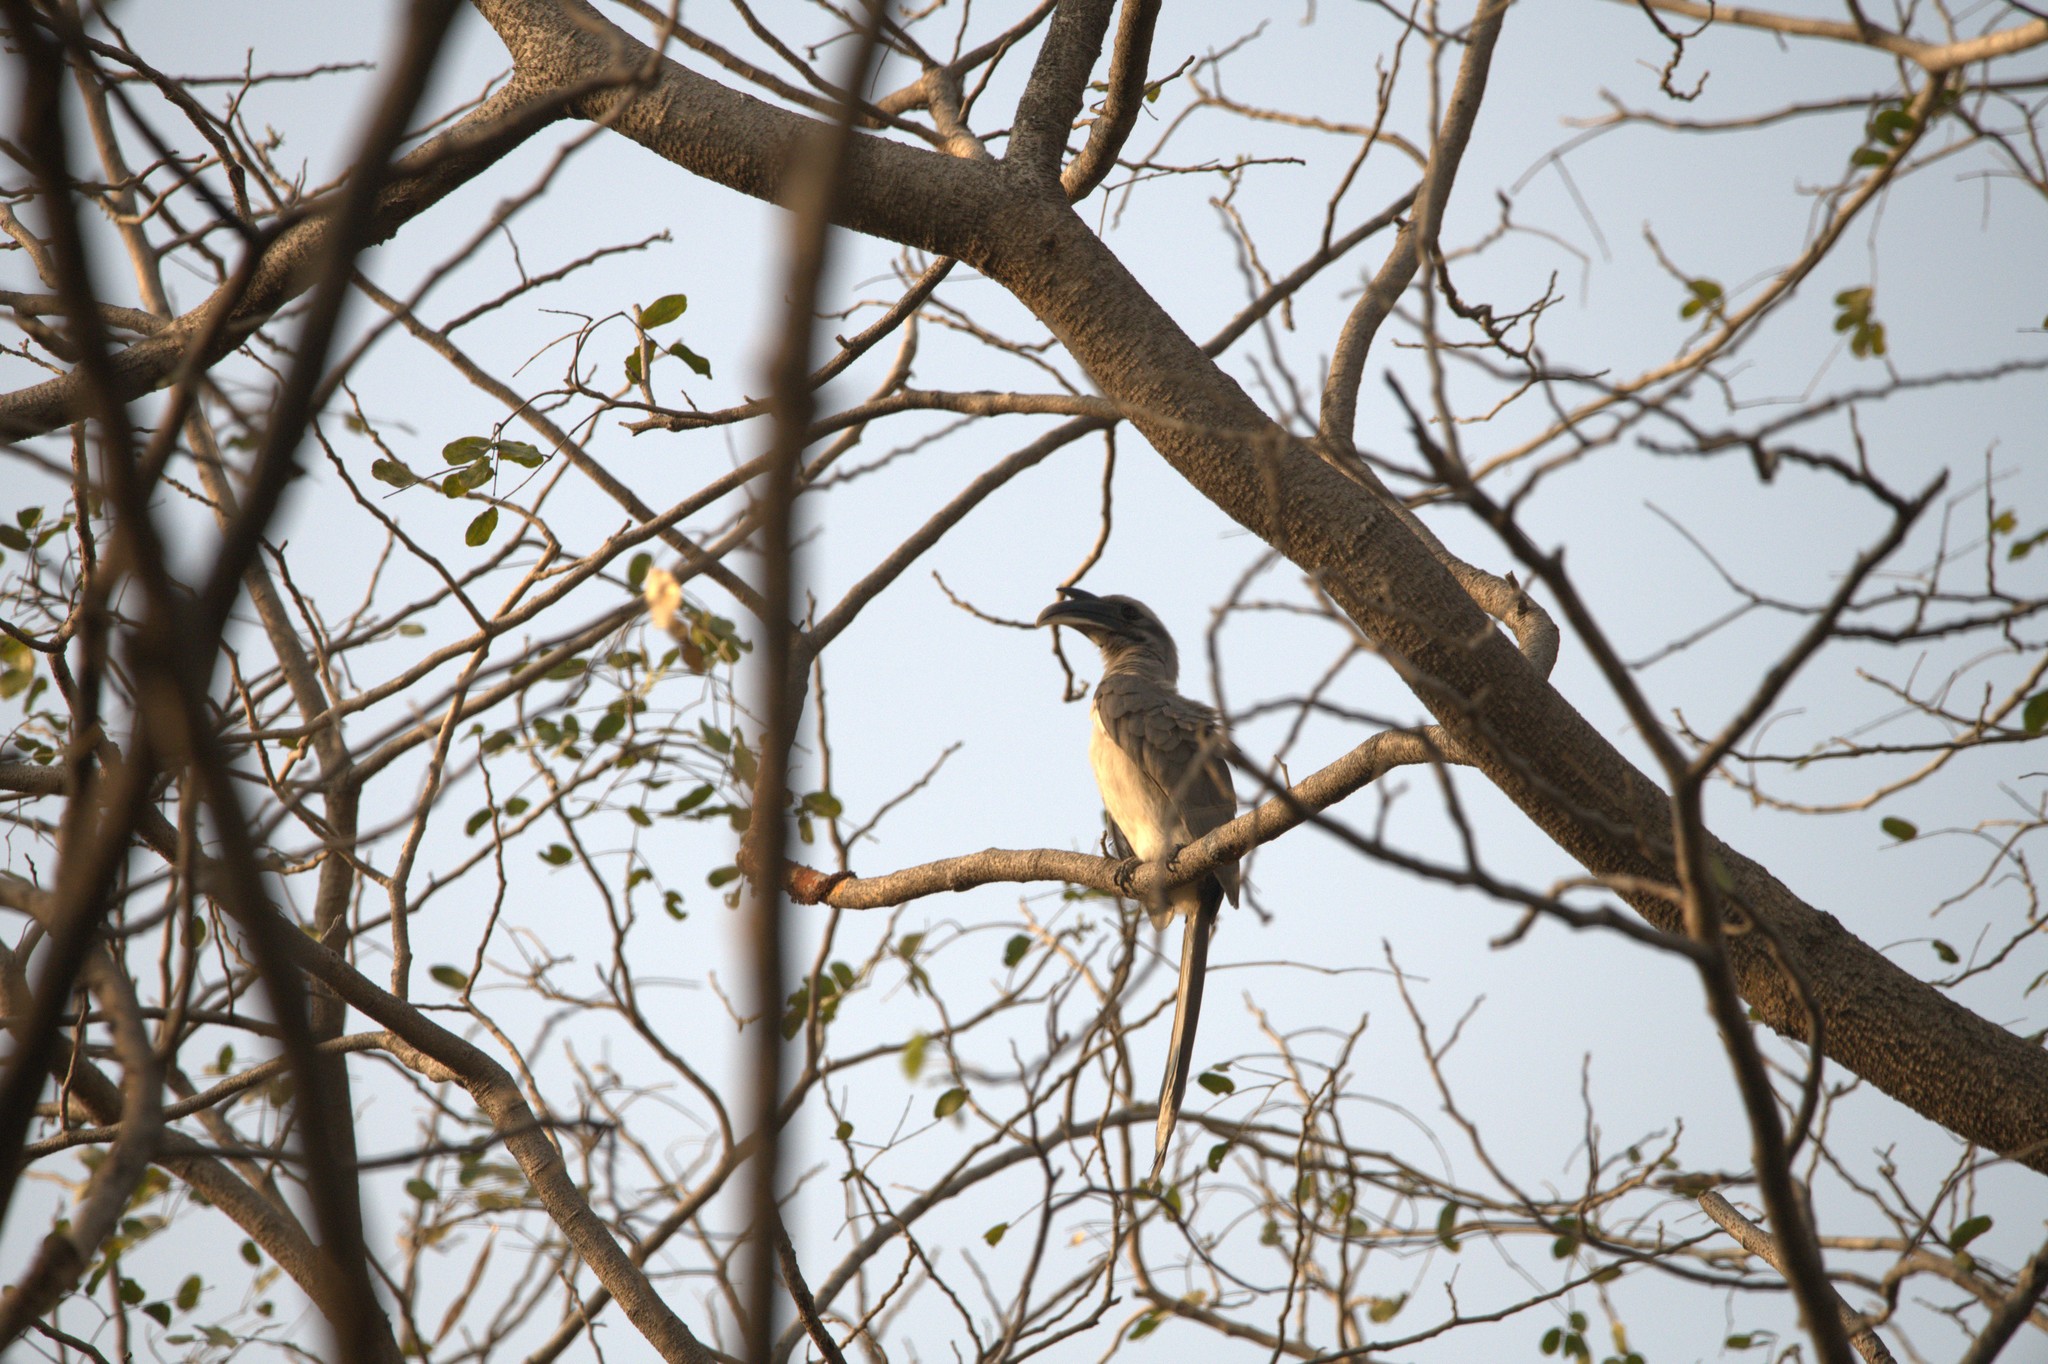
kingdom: Animalia
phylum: Chordata
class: Aves
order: Bucerotiformes
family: Bucerotidae
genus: Ocyceros
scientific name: Ocyceros birostris
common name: Indian grey hornbill
